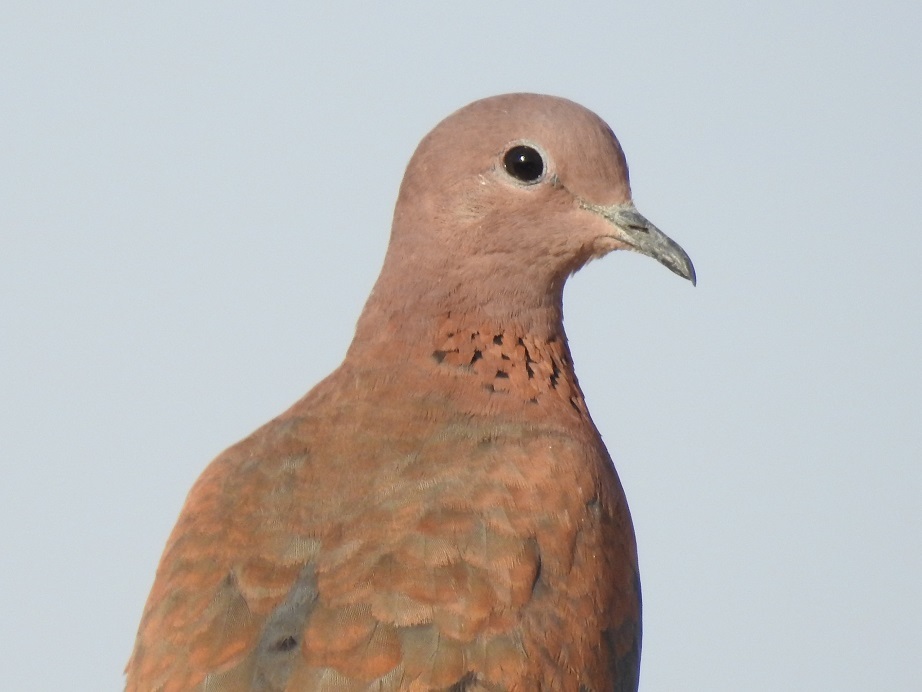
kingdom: Animalia
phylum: Chordata
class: Aves
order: Columbiformes
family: Columbidae
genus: Spilopelia
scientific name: Spilopelia senegalensis
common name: Laughing dove
